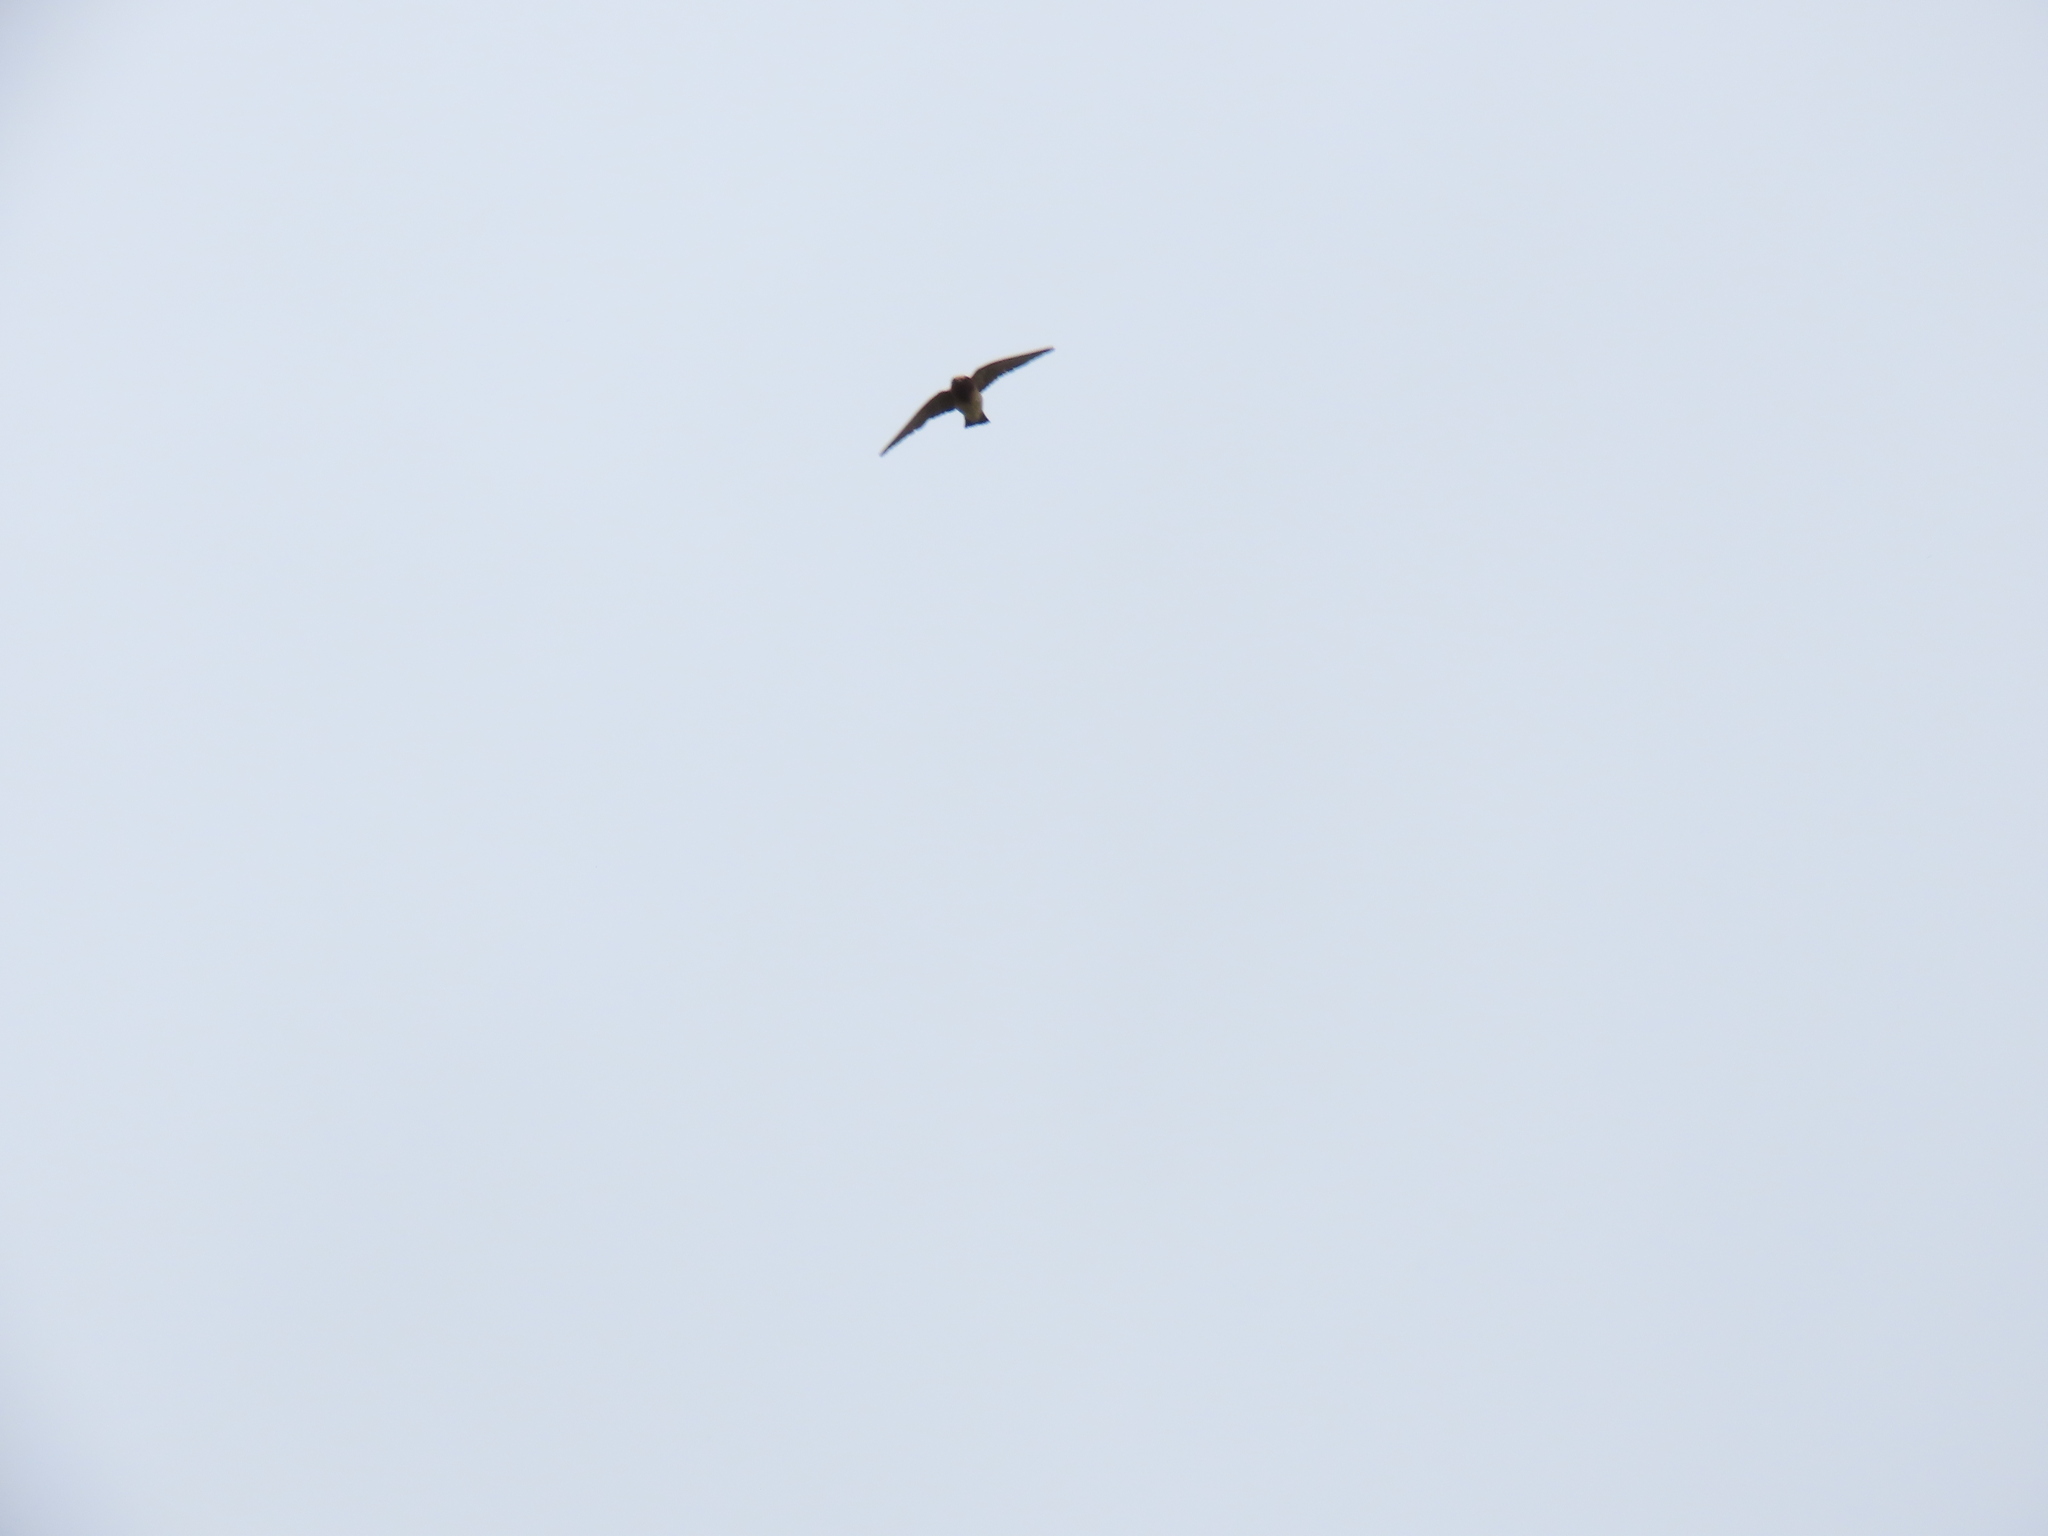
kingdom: Animalia
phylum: Chordata
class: Aves
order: Passeriformes
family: Hirundinidae
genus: Petrochelidon
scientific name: Petrochelidon pyrrhonota
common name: American cliff swallow
